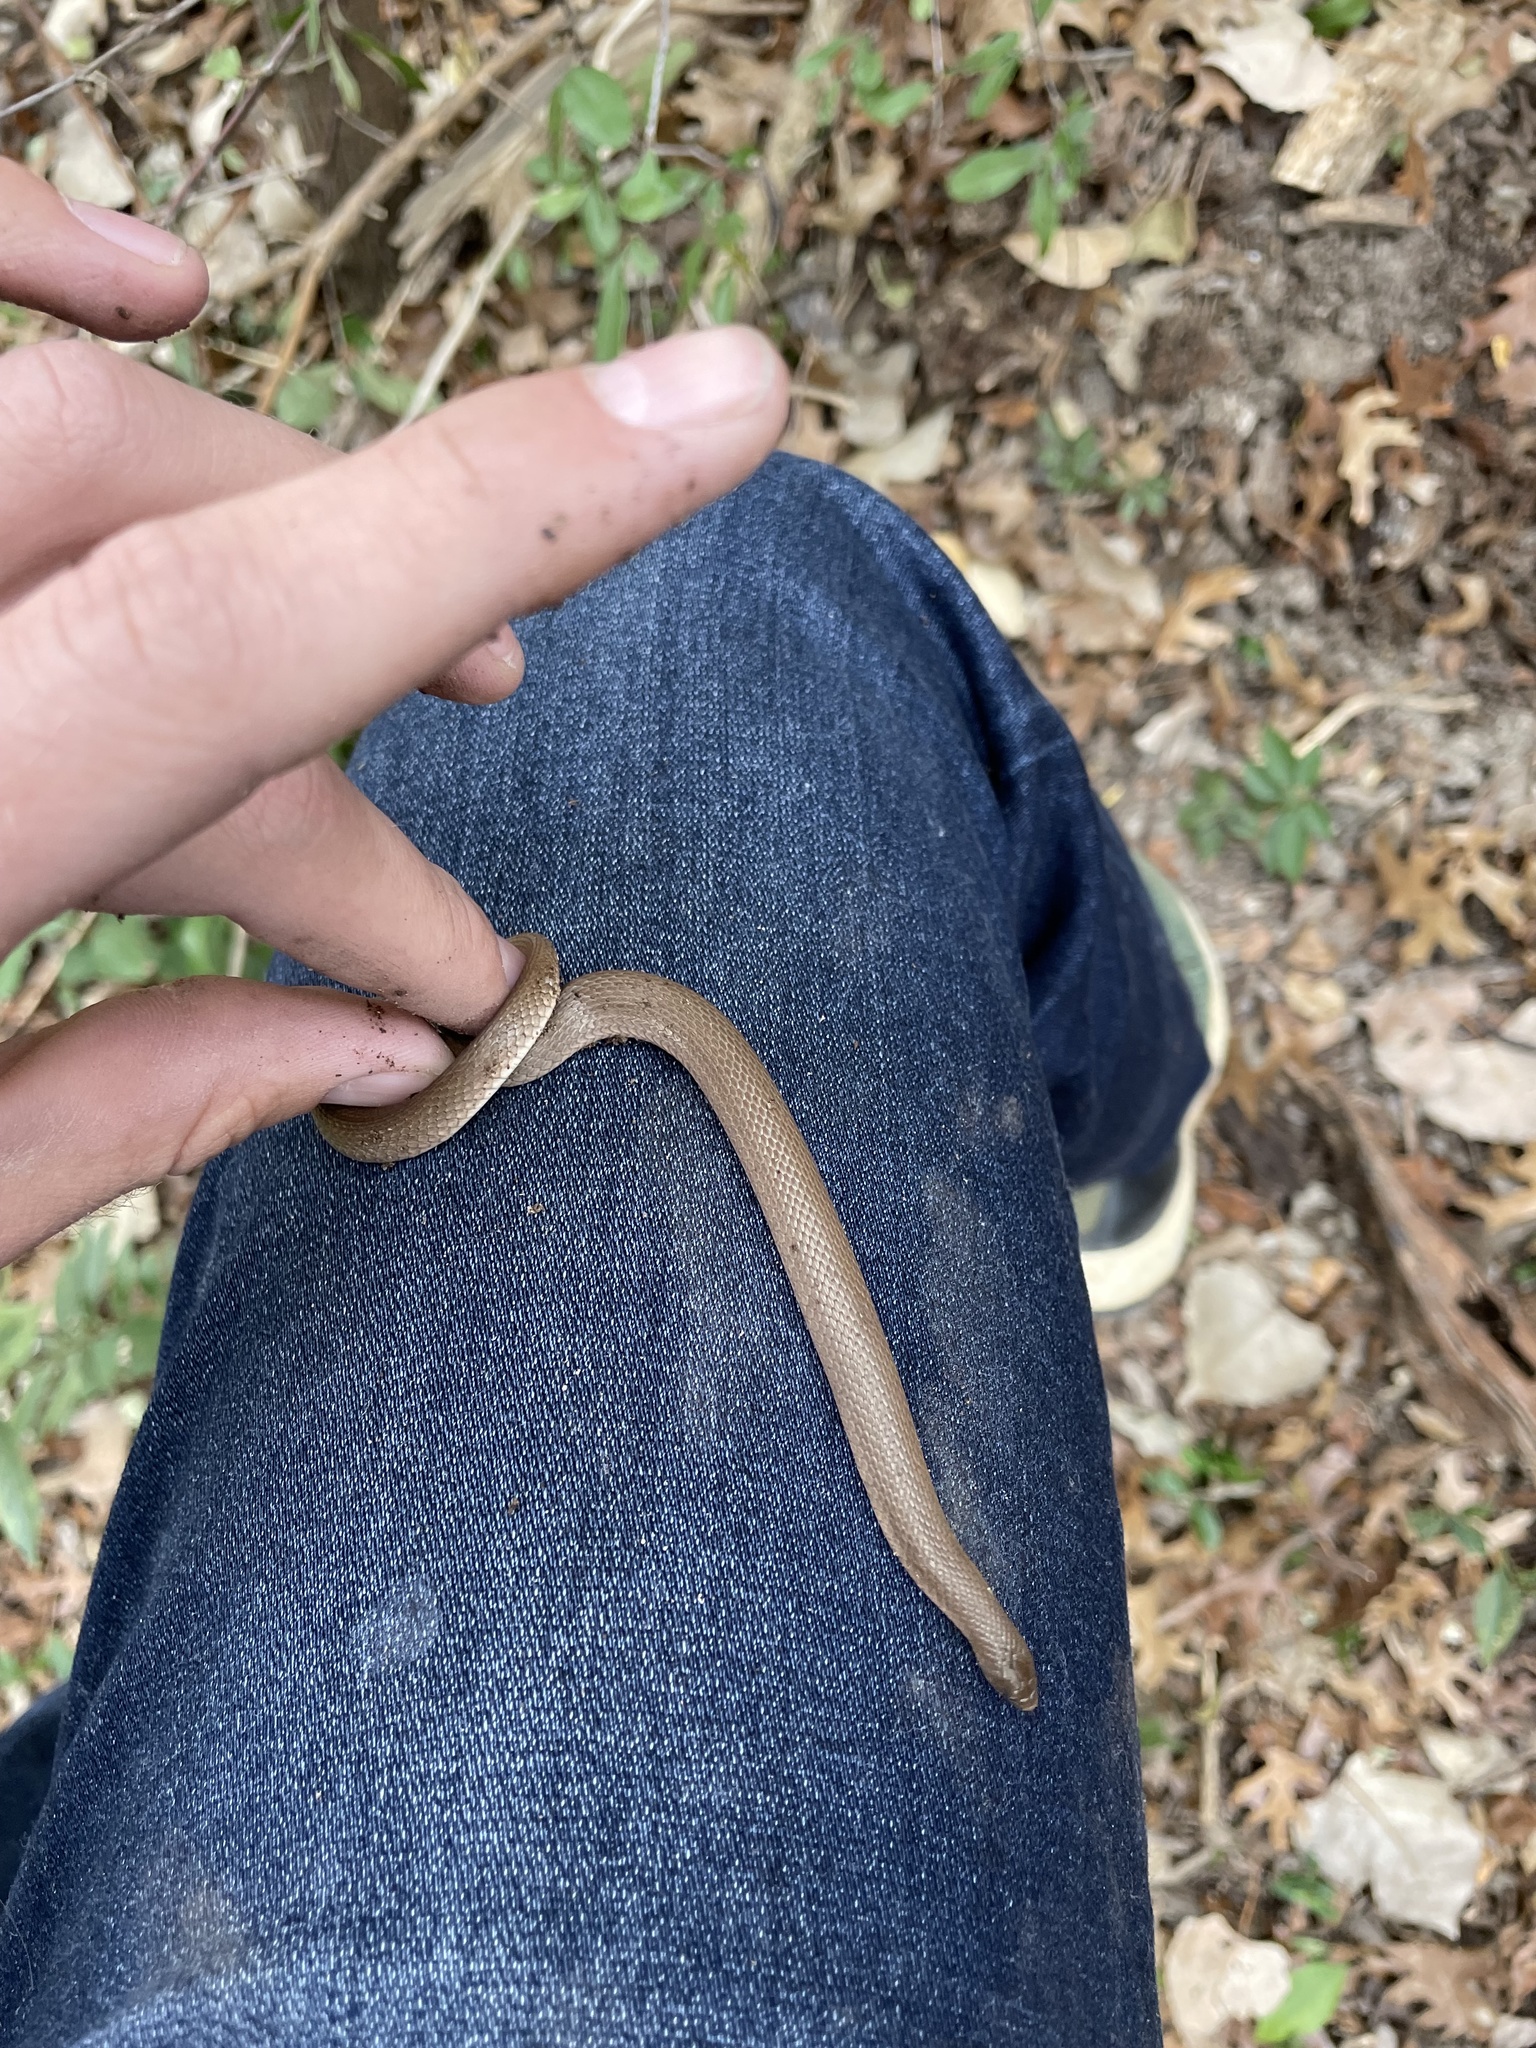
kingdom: Animalia
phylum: Chordata
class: Squamata
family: Colubridae
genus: Haldea
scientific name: Haldea striatula
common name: Rough earth snake
